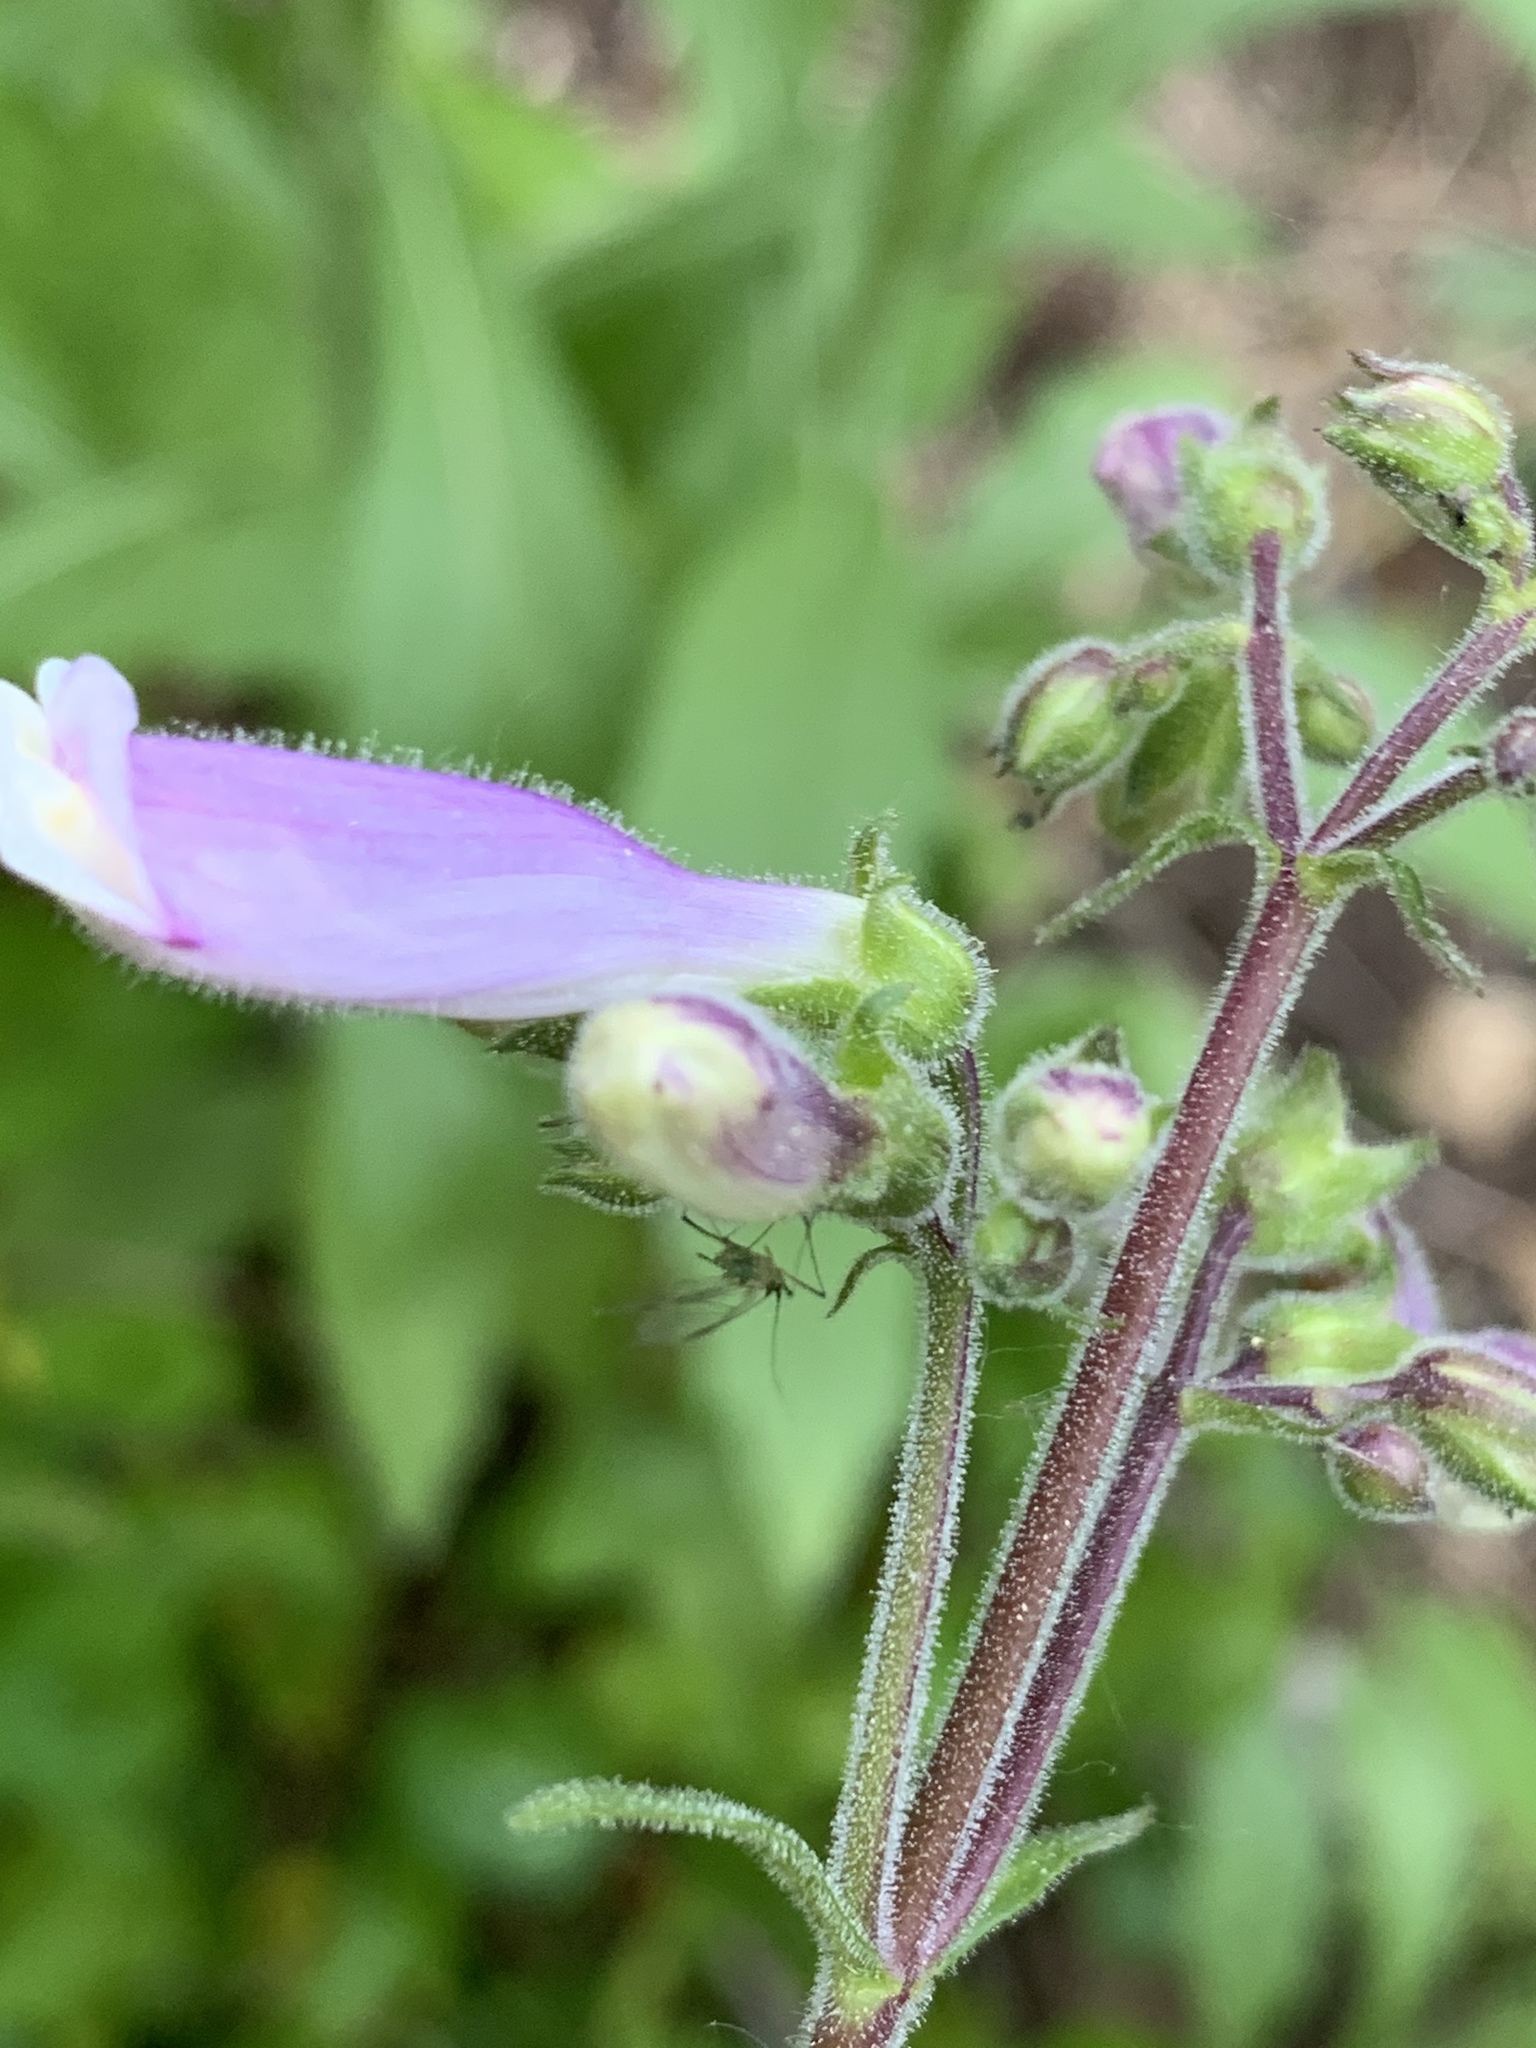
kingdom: Plantae
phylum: Tracheophyta
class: Magnoliopsida
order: Lamiales
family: Plantaginaceae
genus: Penstemon
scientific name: Penstemon hirsutus
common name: Hairy beardtongue
